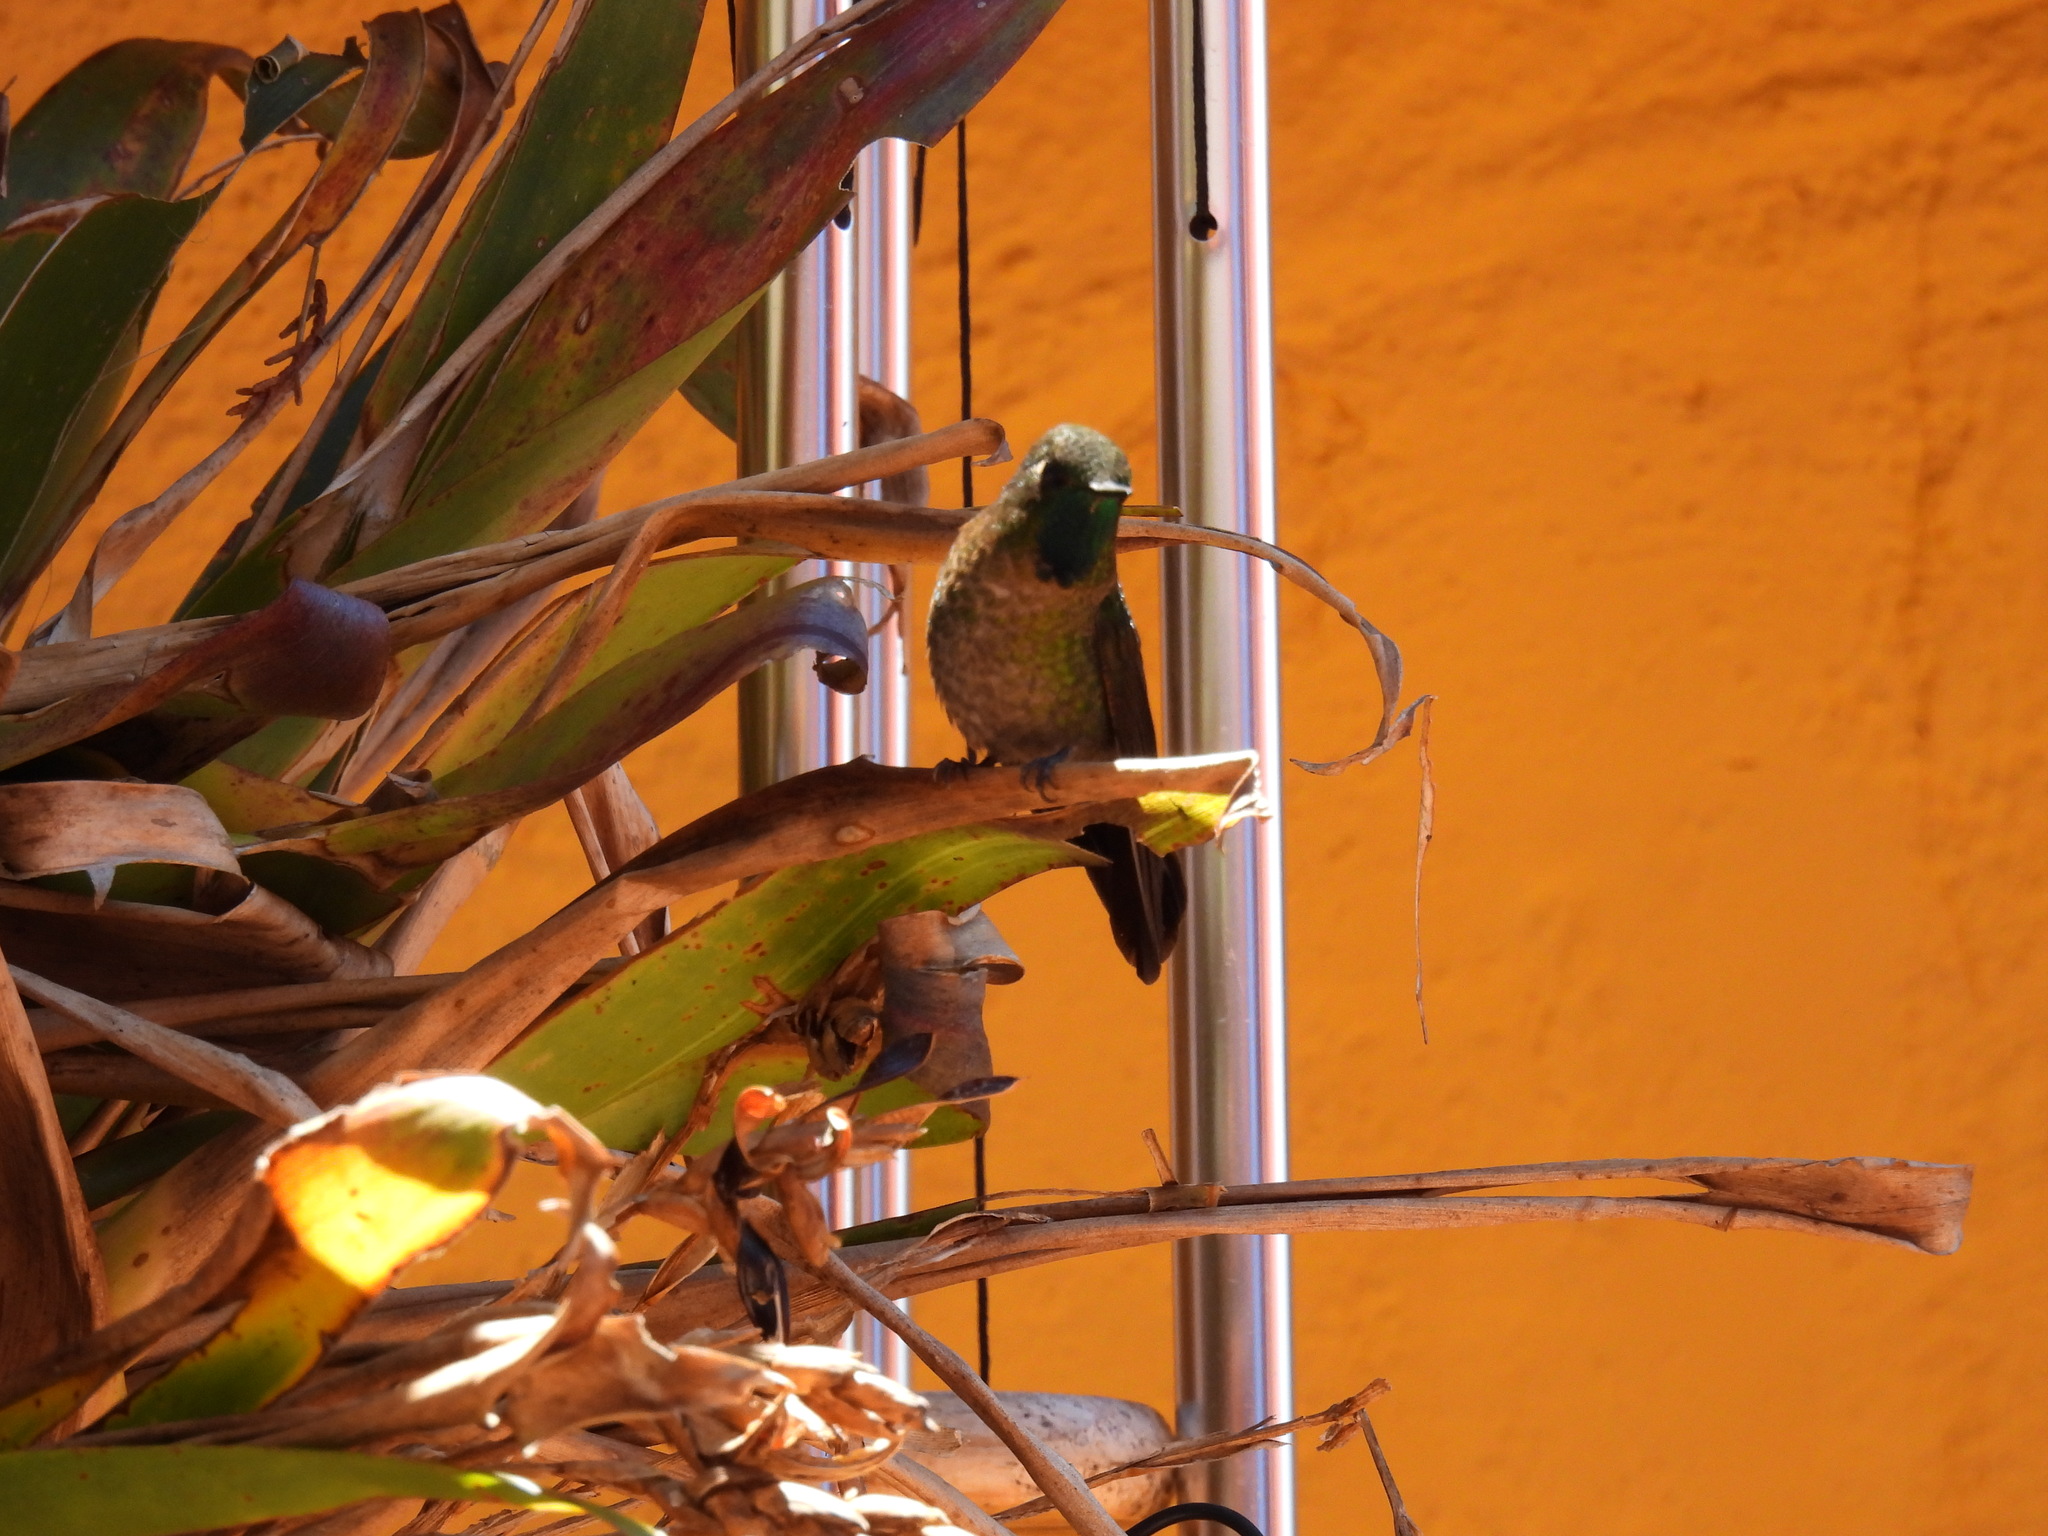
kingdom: Animalia
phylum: Chordata
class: Aves
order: Apodiformes
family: Trochilidae
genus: Metallura
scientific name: Metallura tyrianthina
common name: Tyrian metaltail
